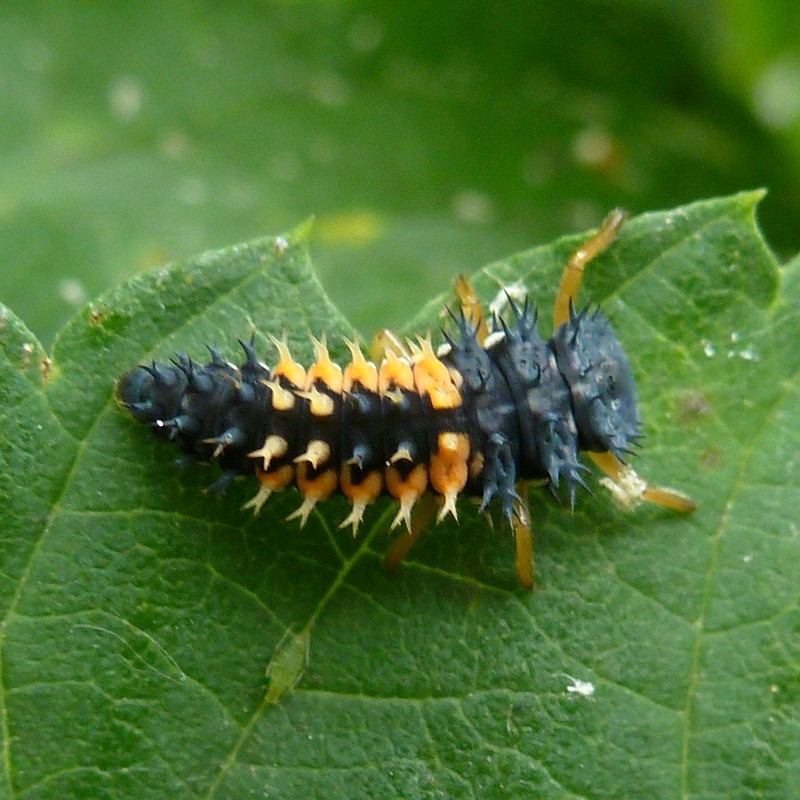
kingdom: Animalia
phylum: Arthropoda
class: Insecta
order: Coleoptera
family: Coccinellidae
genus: Harmonia
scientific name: Harmonia axyridis
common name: Harlequin ladybird
